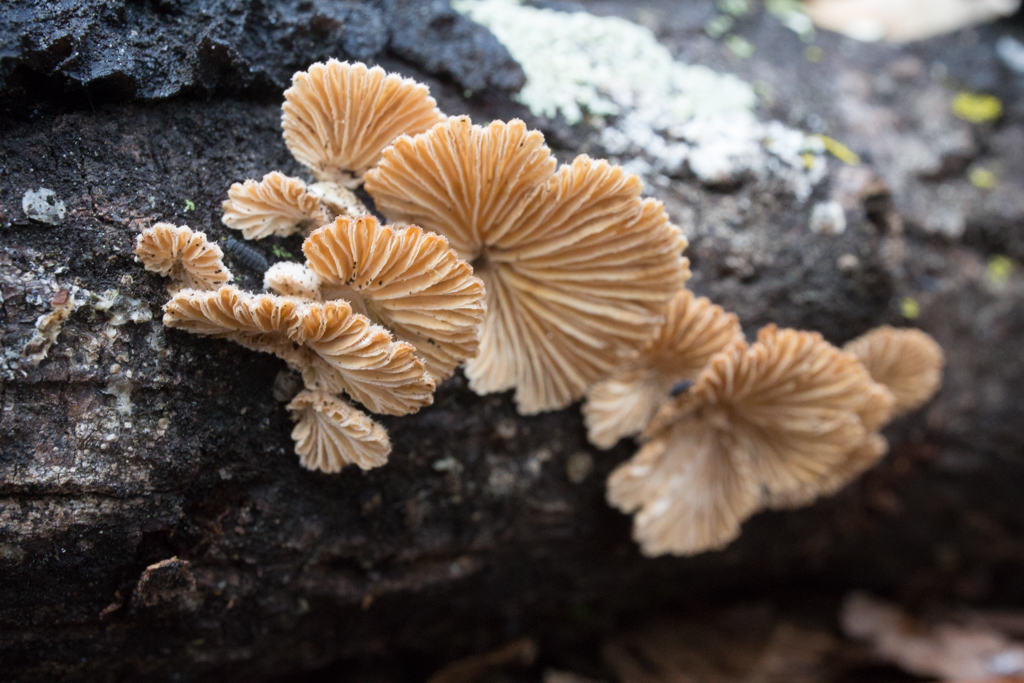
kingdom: Fungi
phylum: Basidiomycota
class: Agaricomycetes
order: Agaricales
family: Schizophyllaceae
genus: Schizophyllum
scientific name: Schizophyllum commune
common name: Common porecrust
